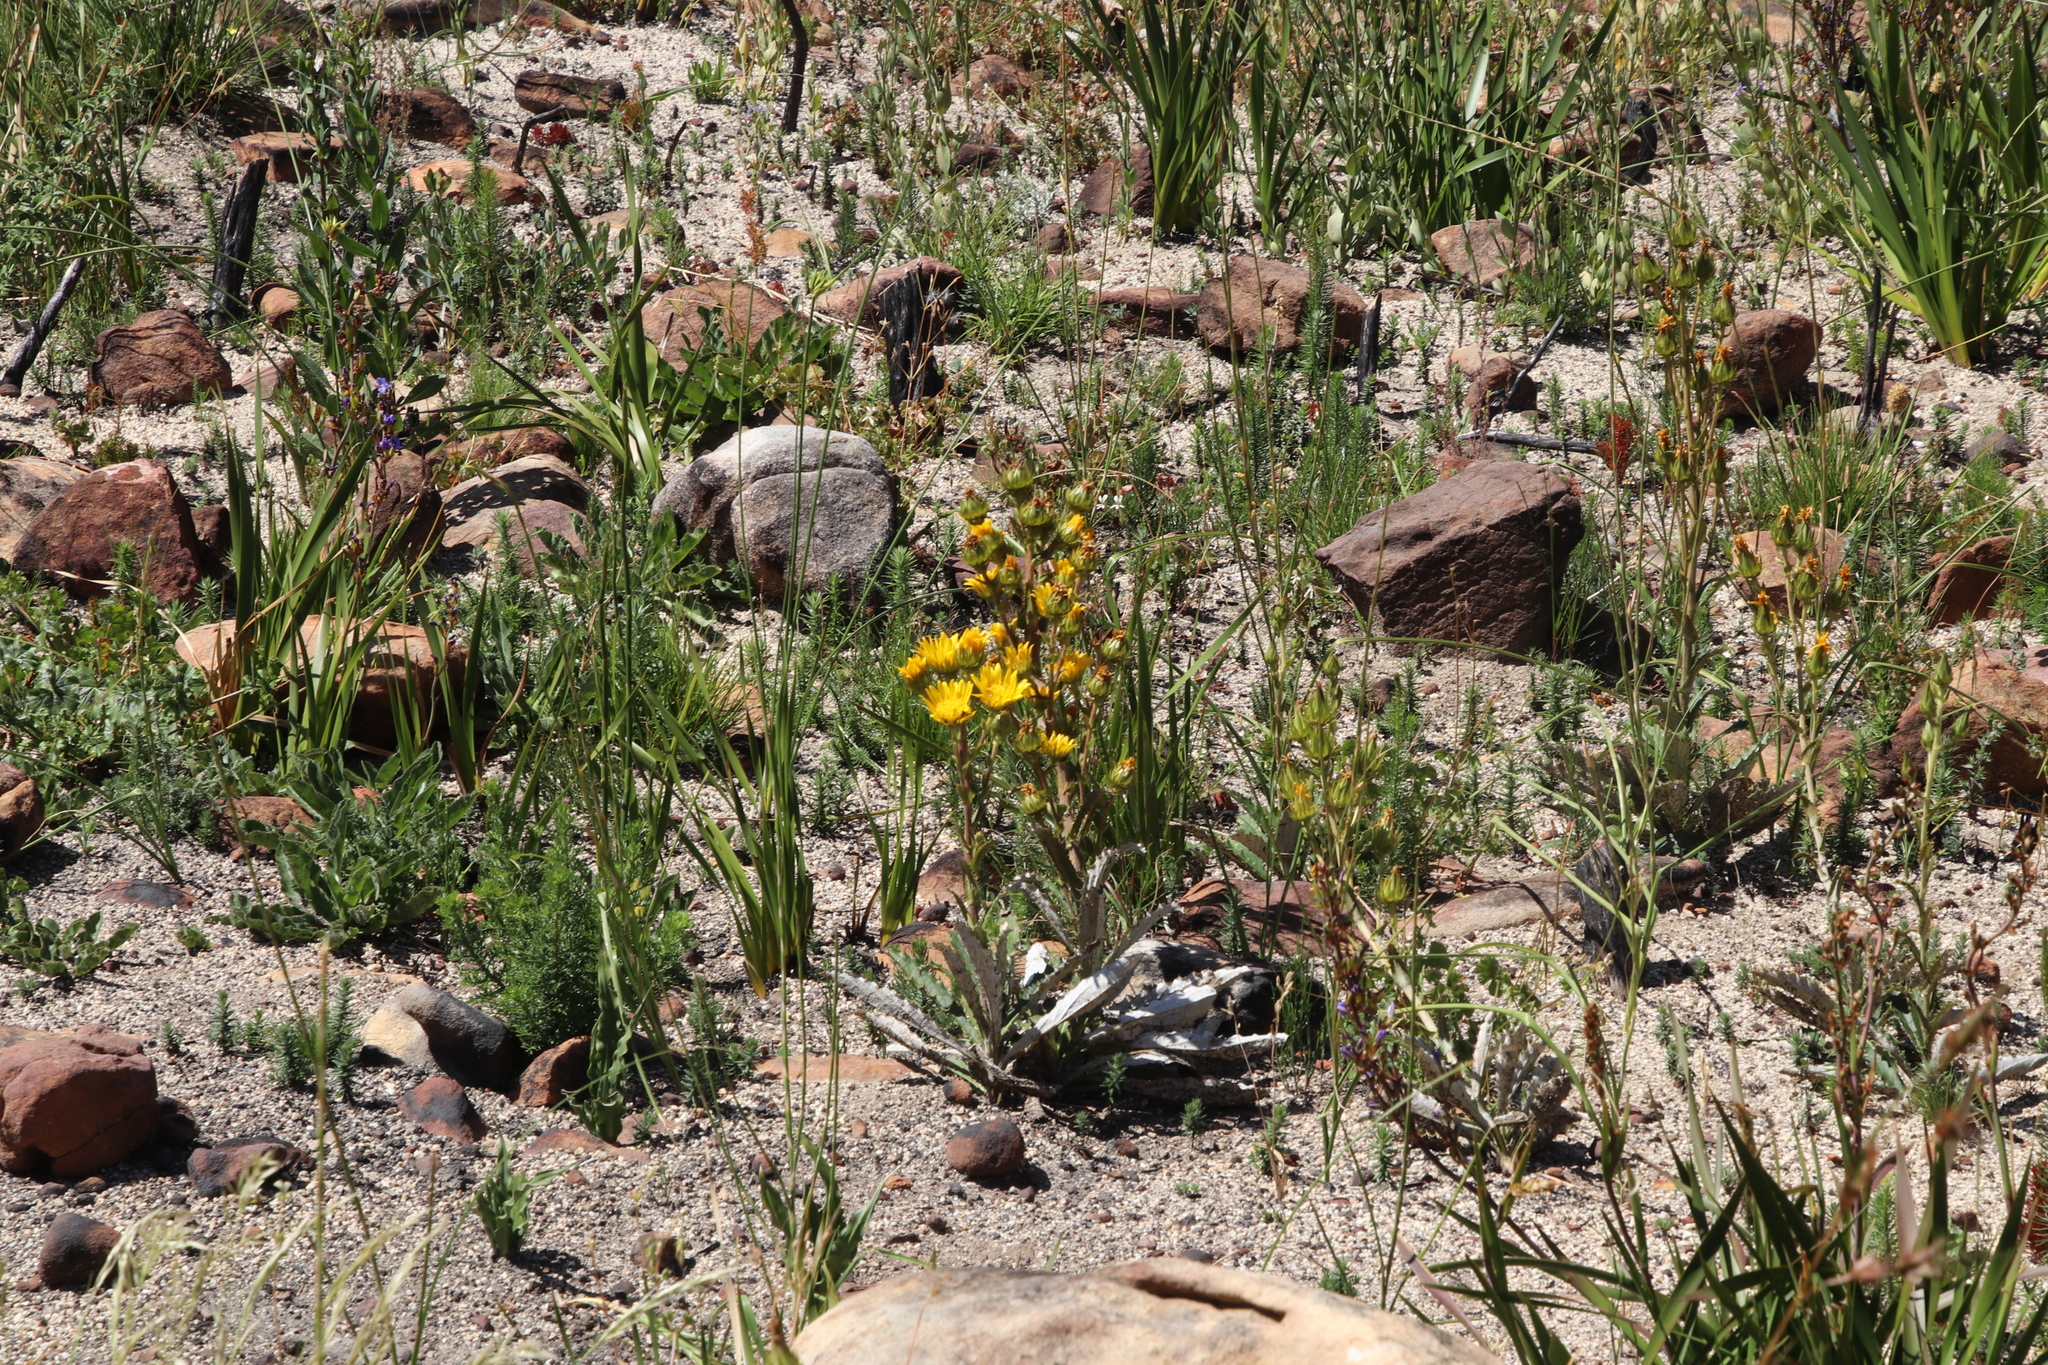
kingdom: Plantae
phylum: Tracheophyta
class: Magnoliopsida
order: Asterales
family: Asteraceae
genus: Berkheya
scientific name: Berkheya armata
